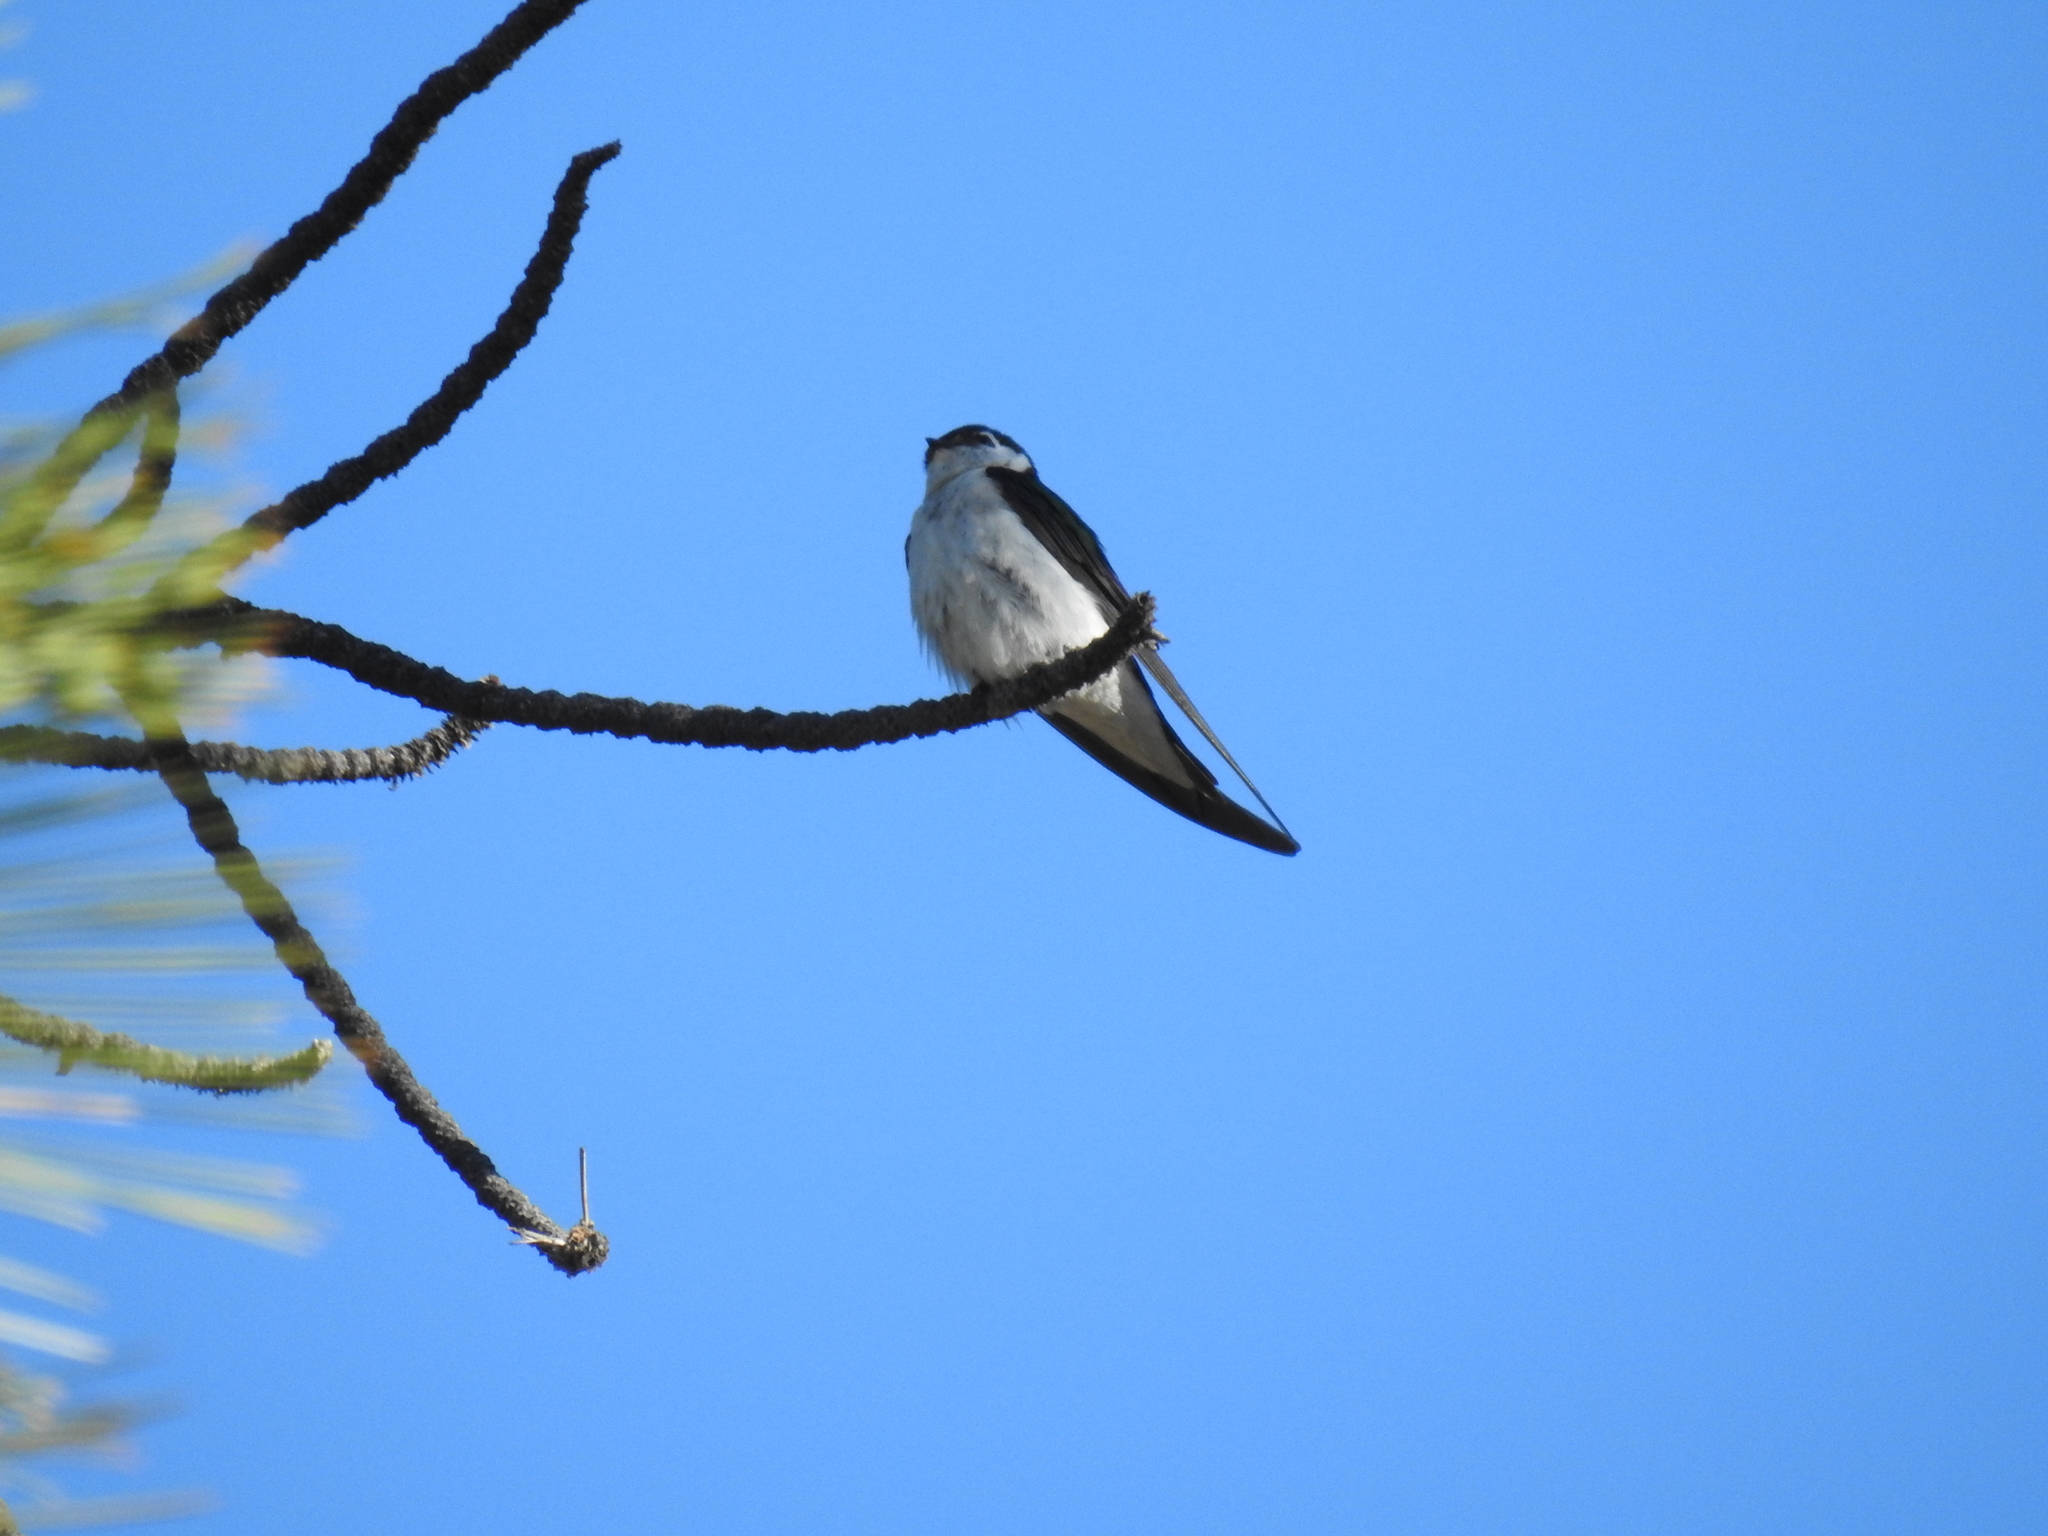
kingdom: Animalia
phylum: Chordata
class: Aves
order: Passeriformes
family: Hirundinidae
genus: Tachycineta
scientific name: Tachycineta thalassina
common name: Violet-green swallow
